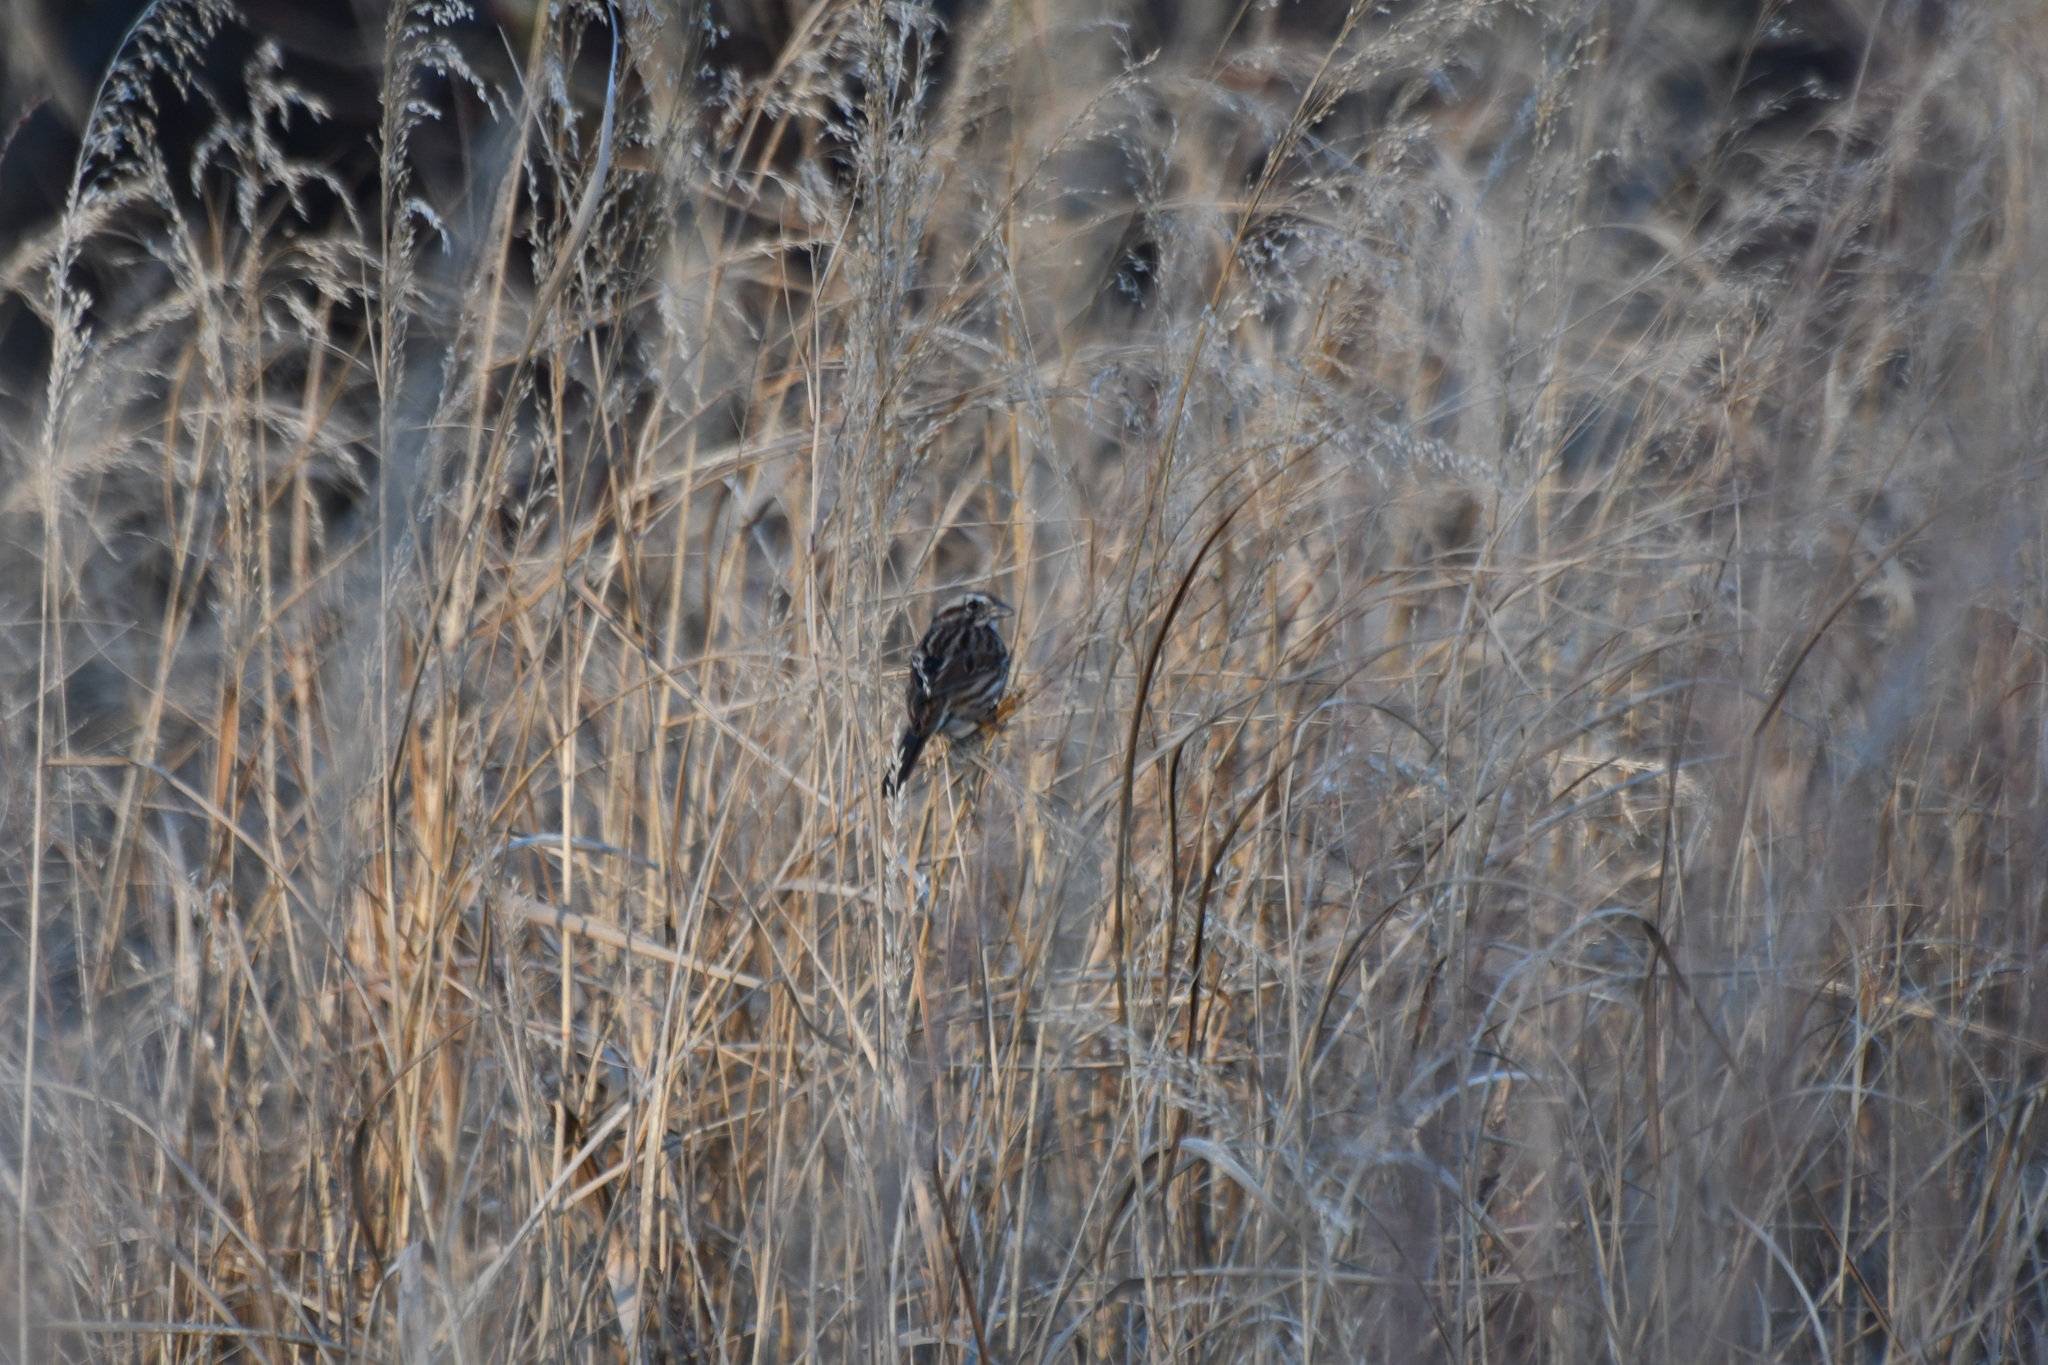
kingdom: Animalia
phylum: Chordata
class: Aves
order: Passeriformes
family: Passerellidae
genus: Passerculus
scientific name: Passerculus sandwichensis
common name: Savannah sparrow
